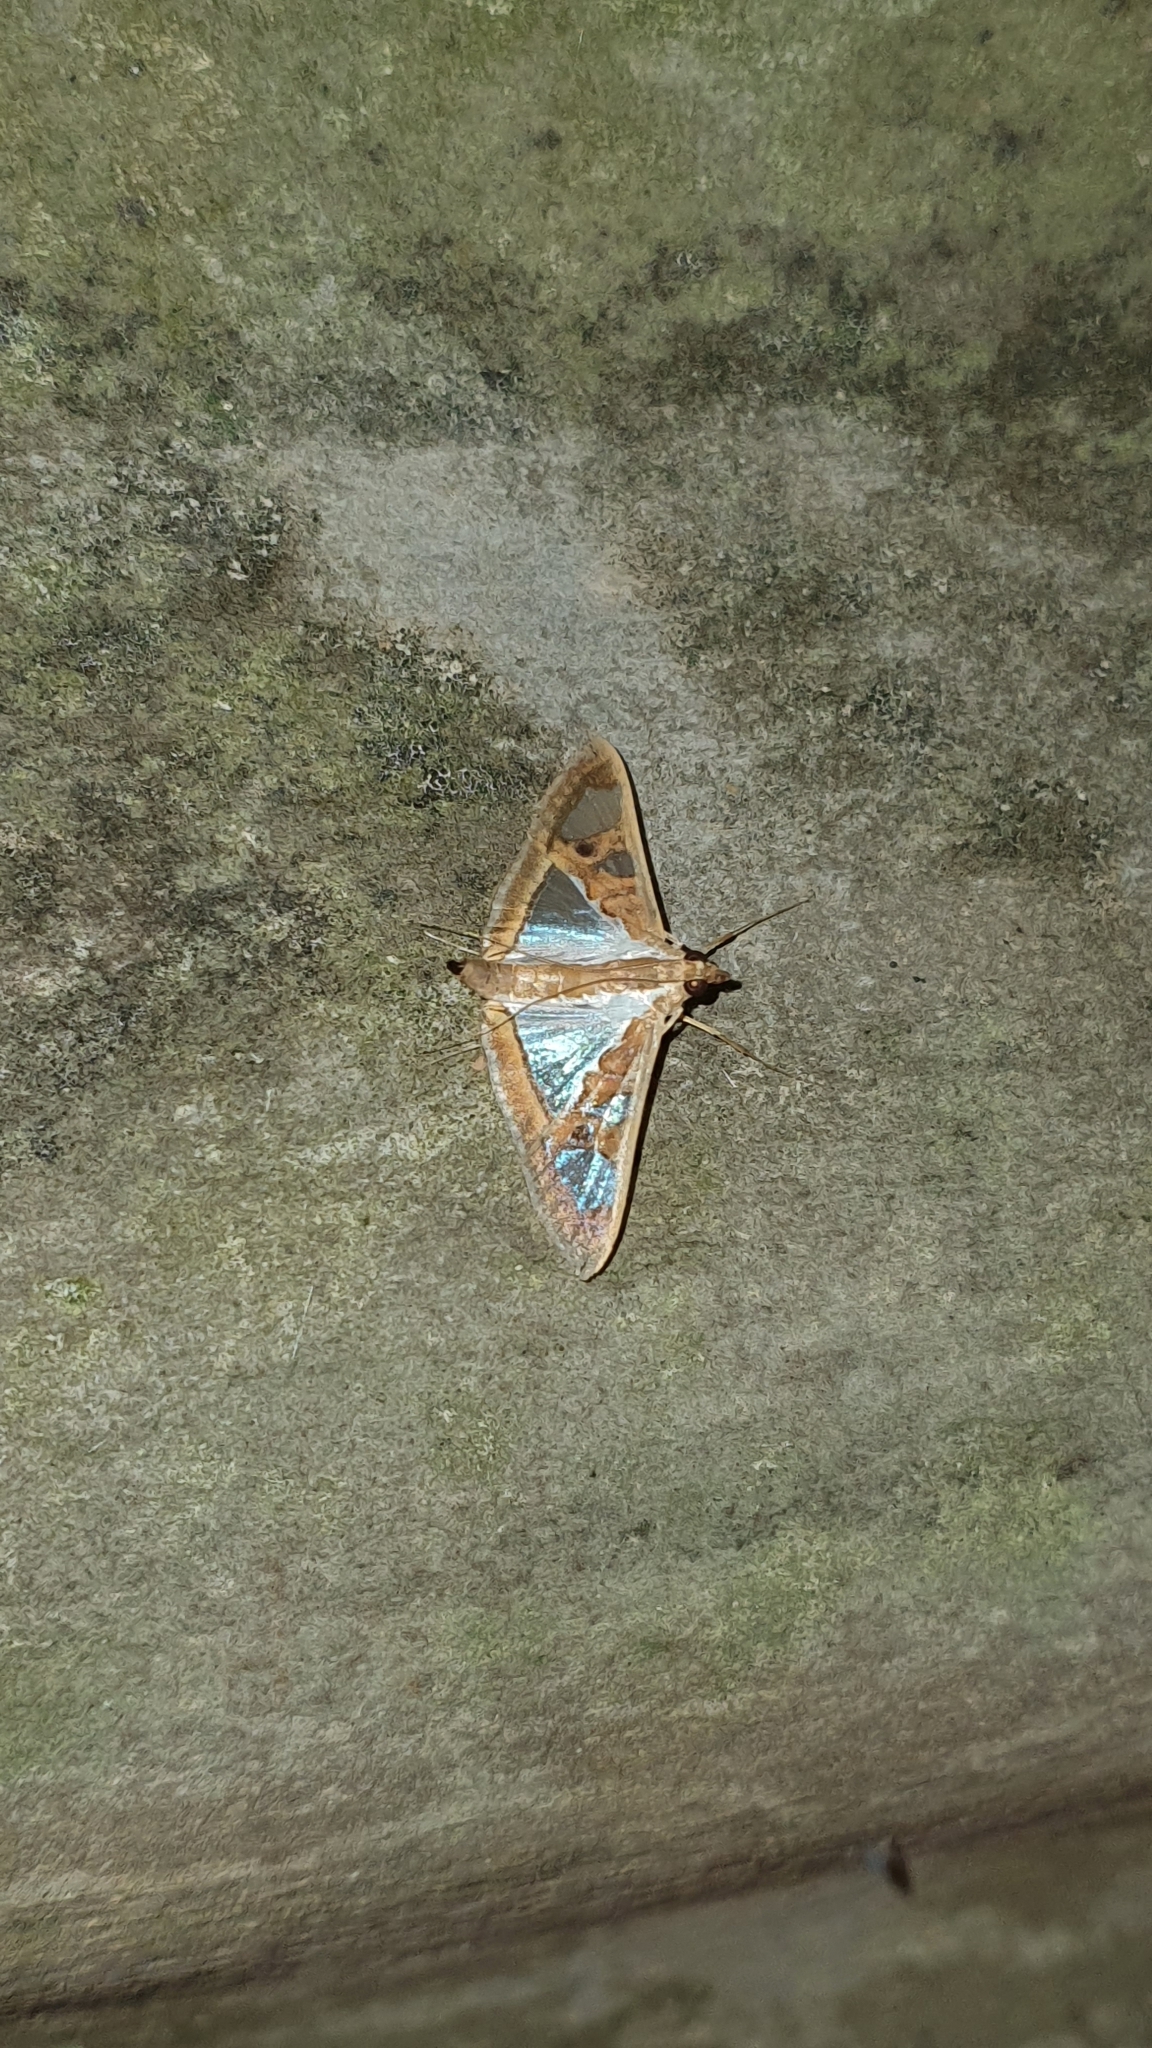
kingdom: Animalia
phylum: Arthropoda
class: Insecta
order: Lepidoptera
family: Crambidae
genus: Glyphodes
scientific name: Glyphodes bivitralis
